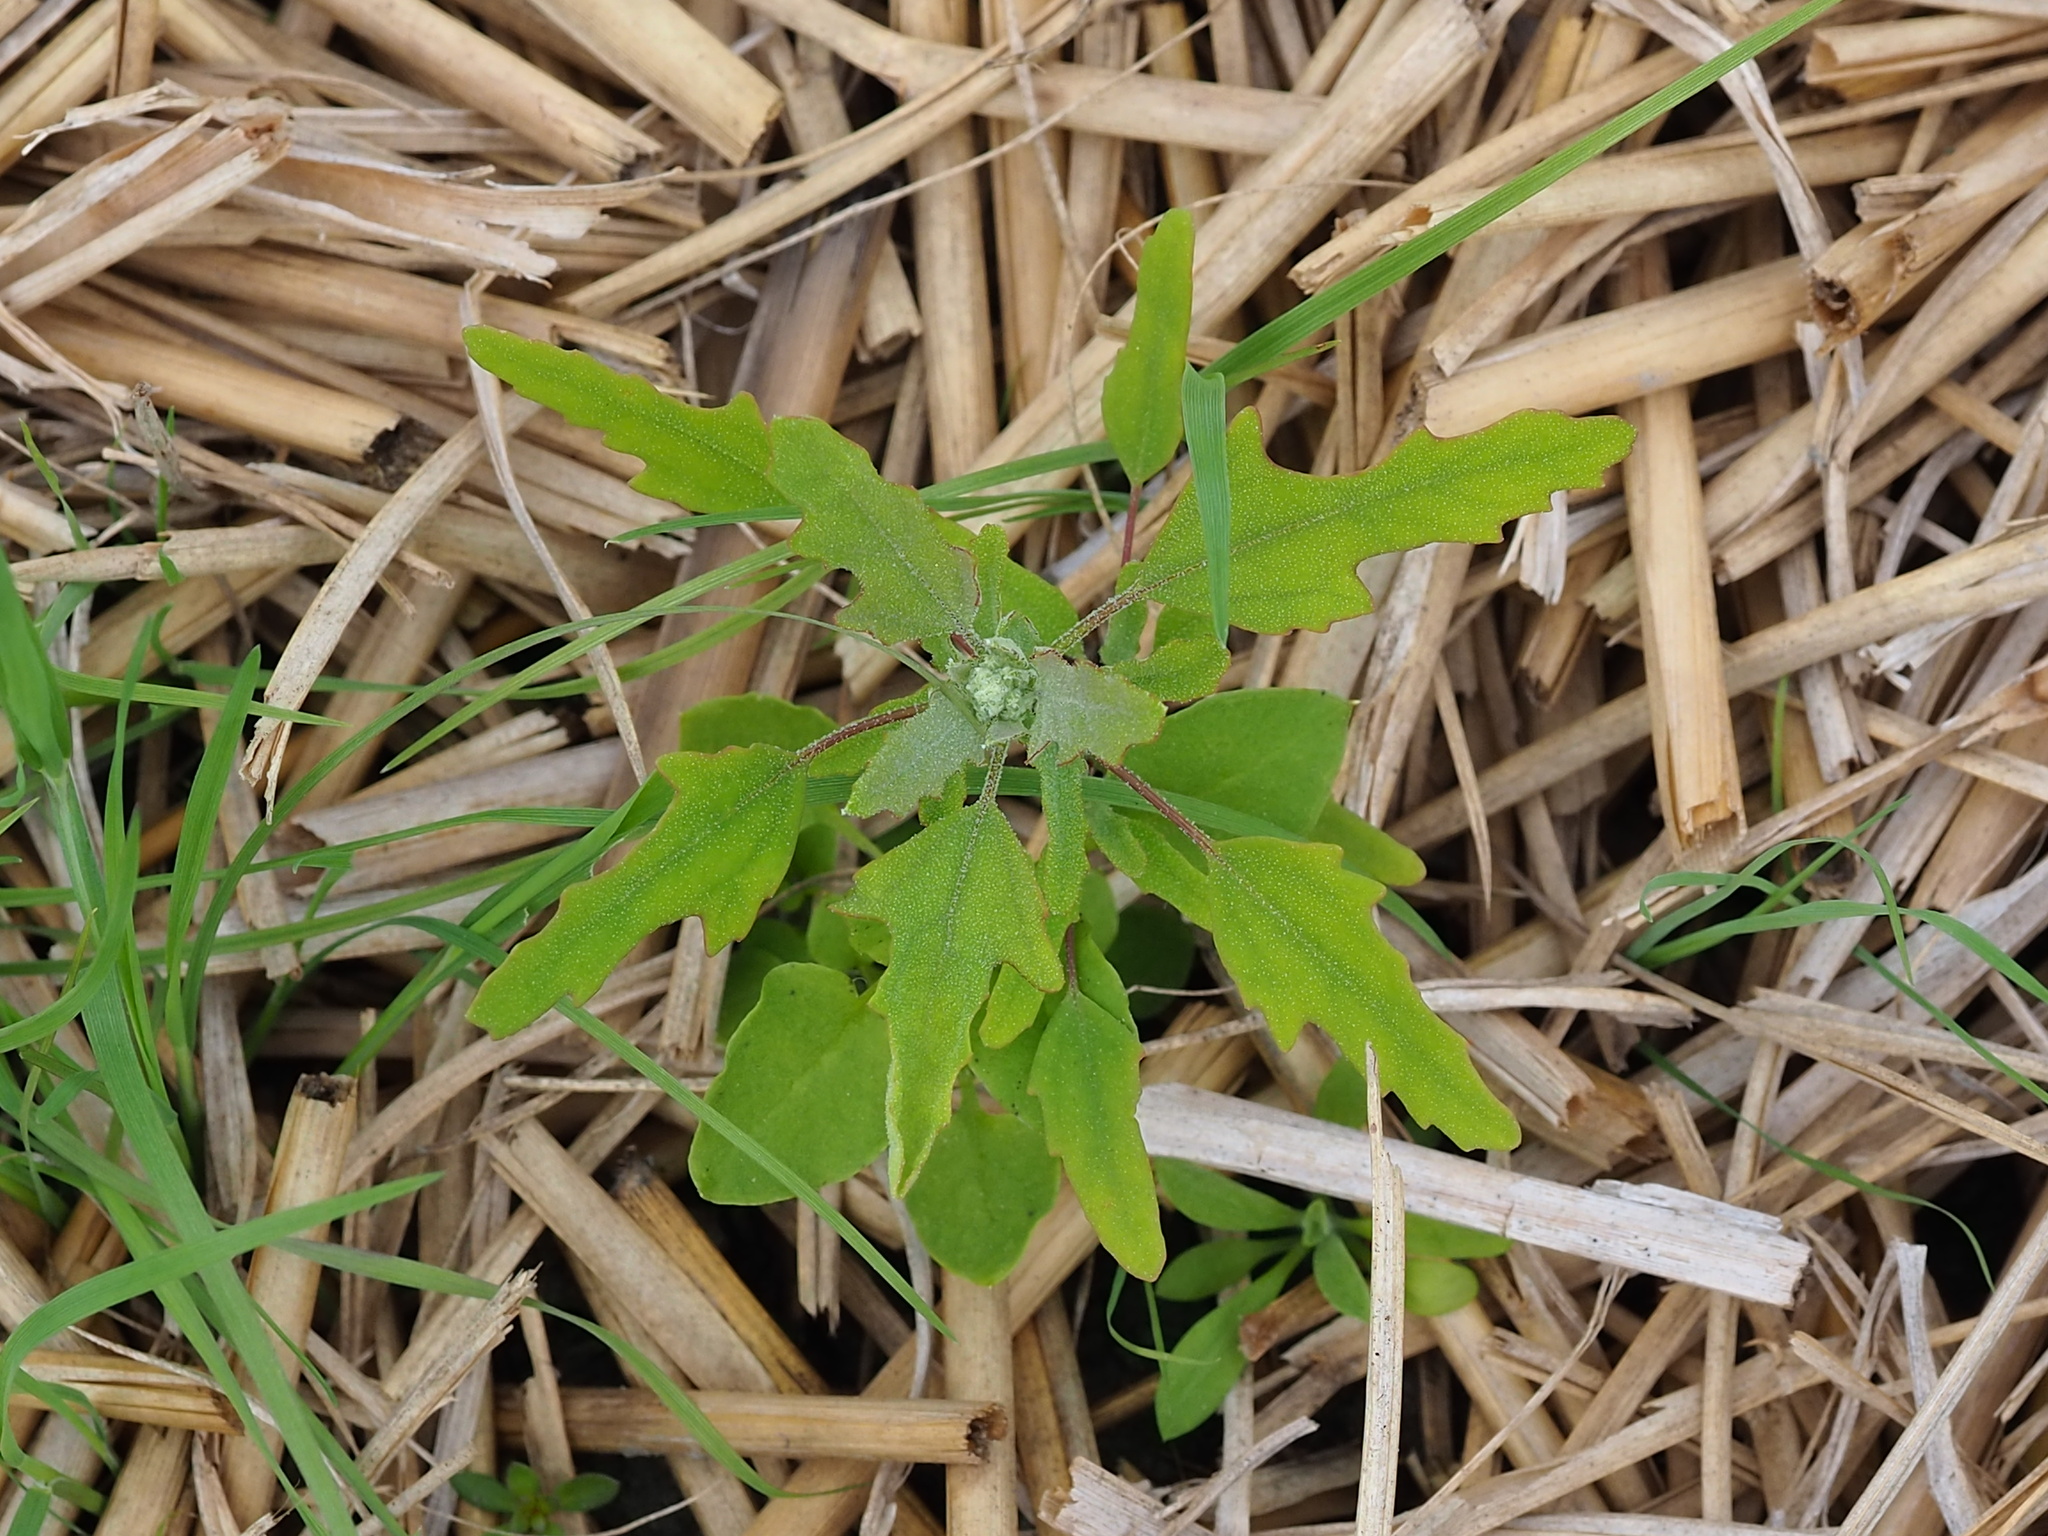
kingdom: Plantae
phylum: Tracheophyta
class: Magnoliopsida
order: Caryophyllales
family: Amaranthaceae
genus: Chenopodium
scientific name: Chenopodium ficifolium
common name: Fig-leaved goosefoot
